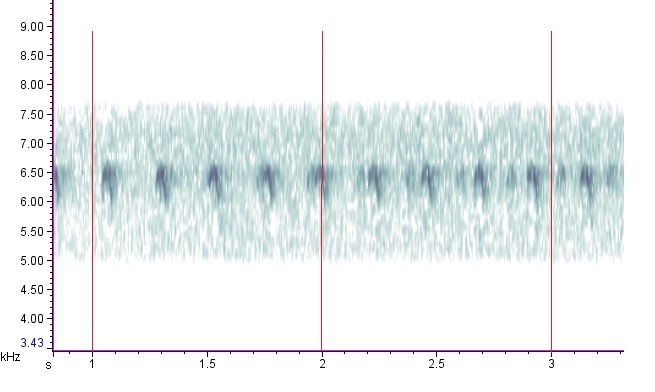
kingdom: Animalia
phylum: Arthropoda
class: Insecta
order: Orthoptera
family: Trigonidiidae
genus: Anaxipha
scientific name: Anaxipha tinnulenta
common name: Slow-tinkling trig
